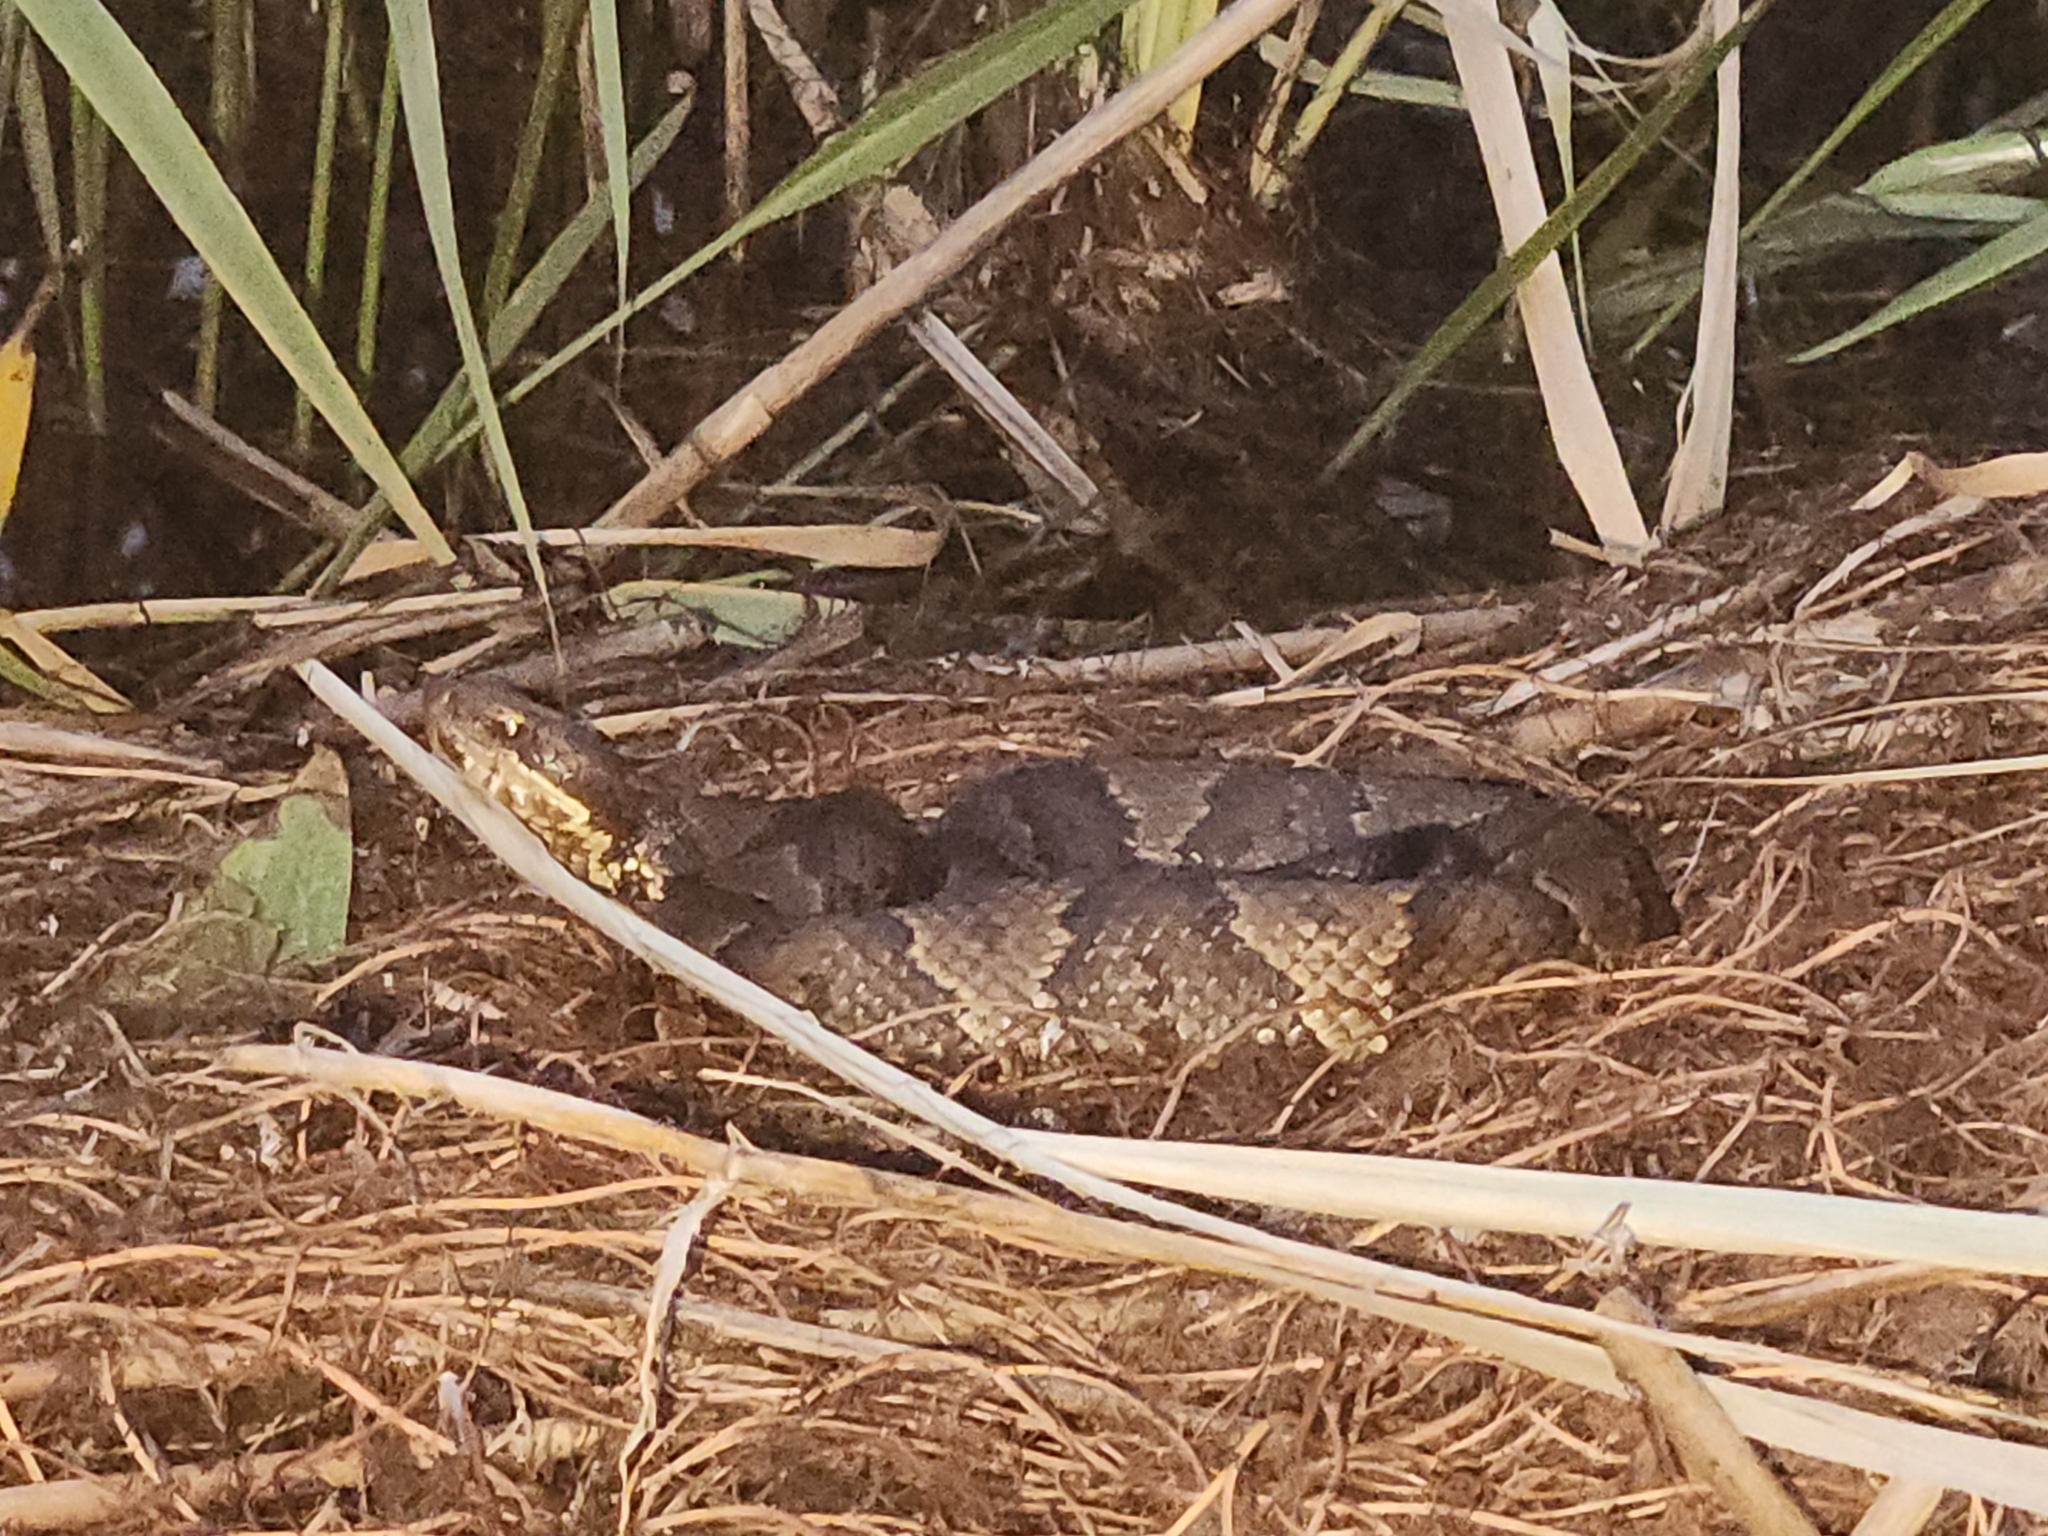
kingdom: Animalia
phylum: Chordata
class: Squamata
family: Viperidae
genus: Agkistrodon
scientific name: Agkistrodon piscivorus
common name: Cottonmouth
